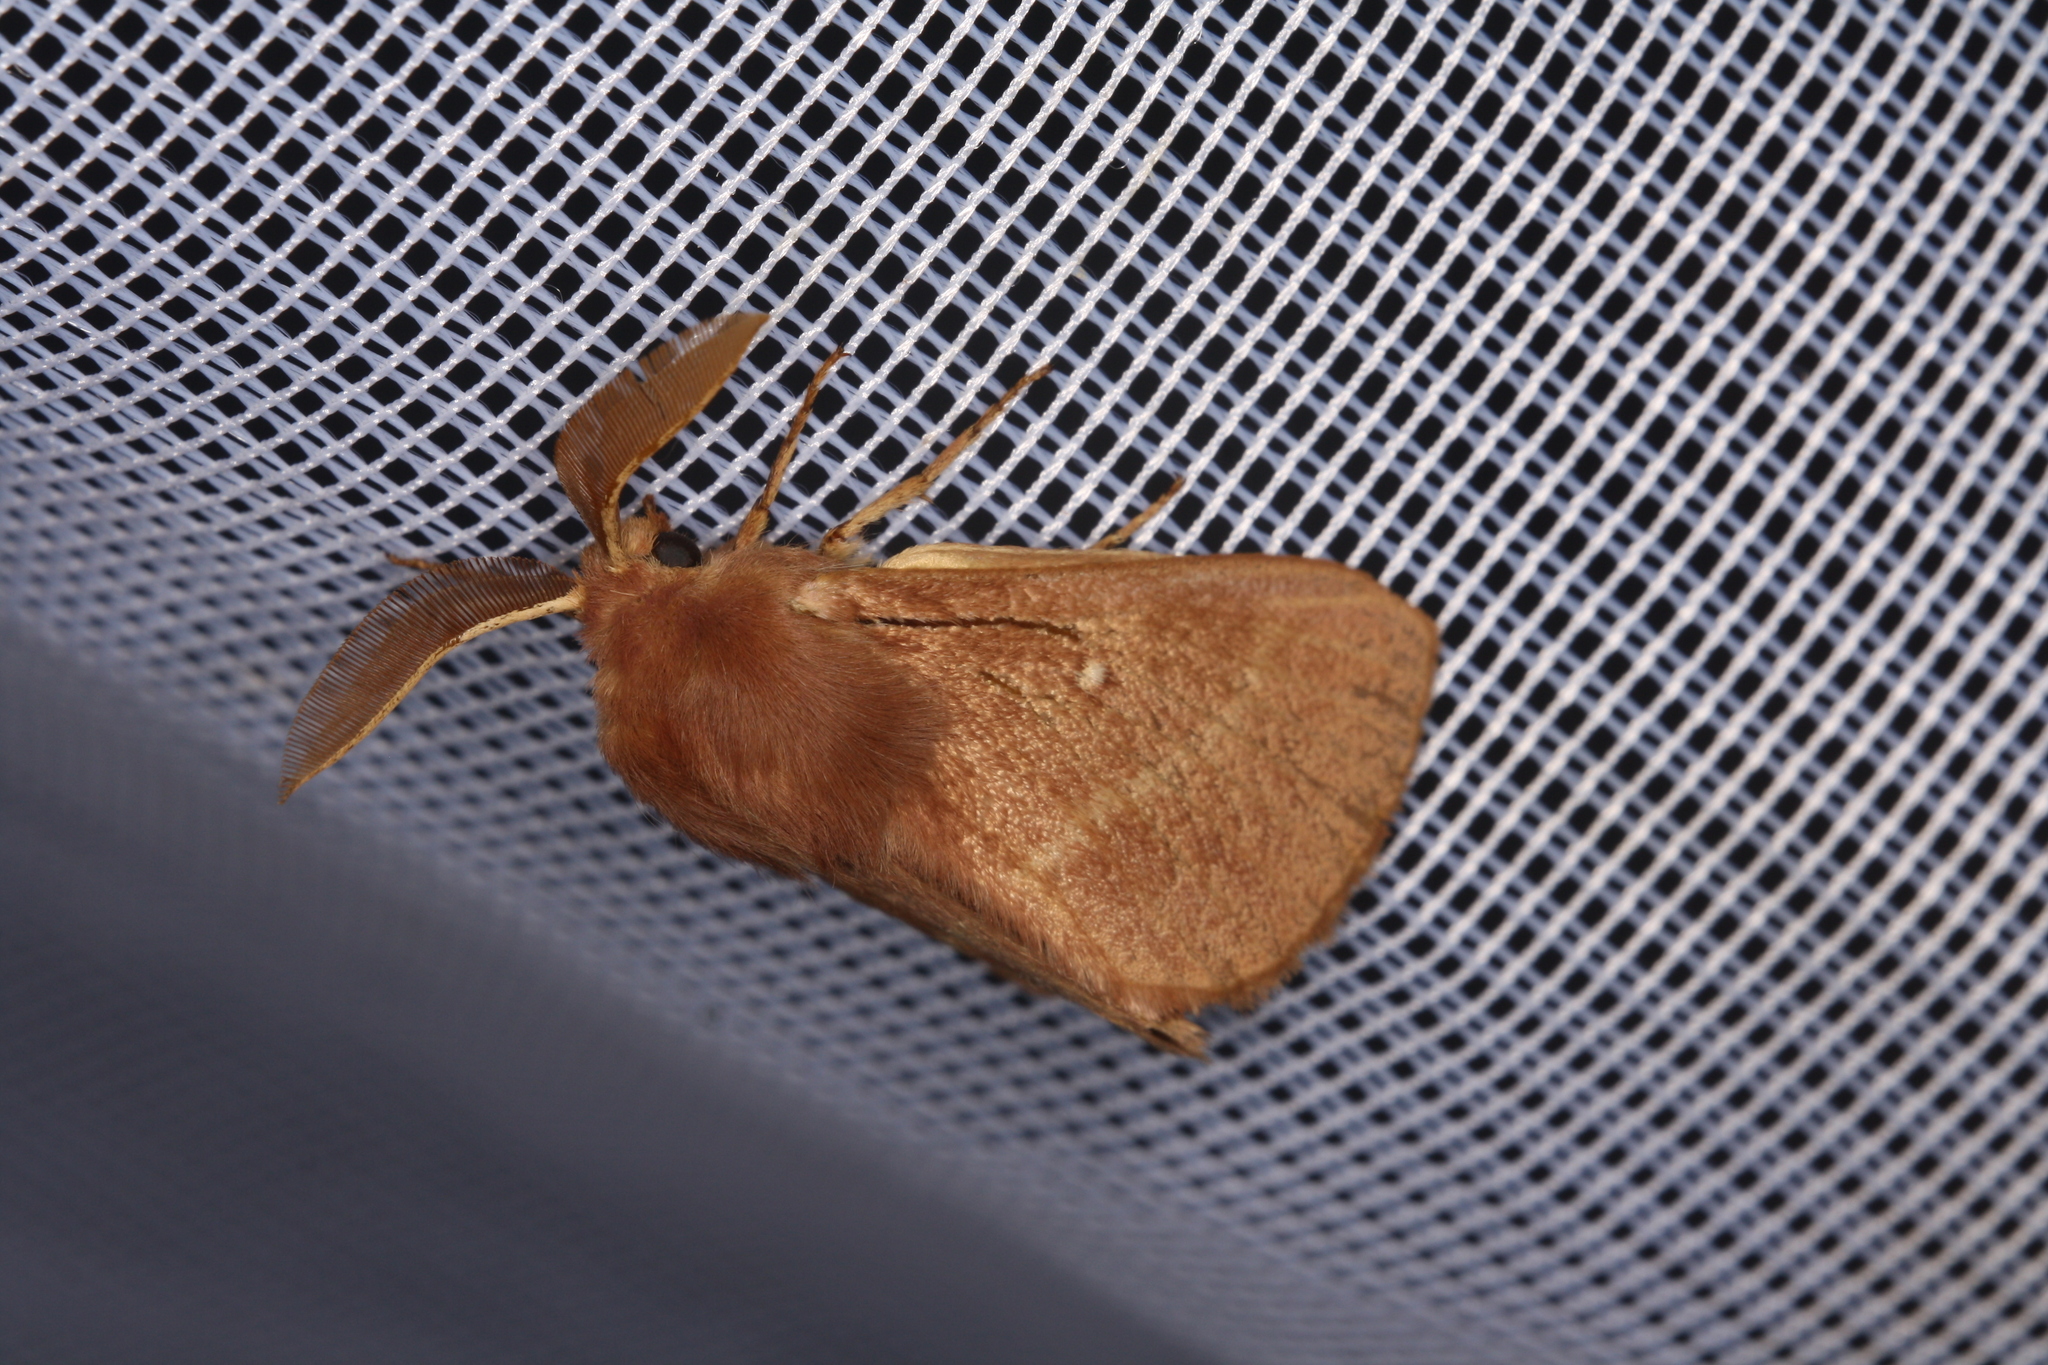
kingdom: Animalia
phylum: Arthropoda
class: Insecta
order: Lepidoptera
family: Lasiocampidae
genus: Lasiocampa
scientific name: Lasiocampa trifolii
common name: Grass eggar
